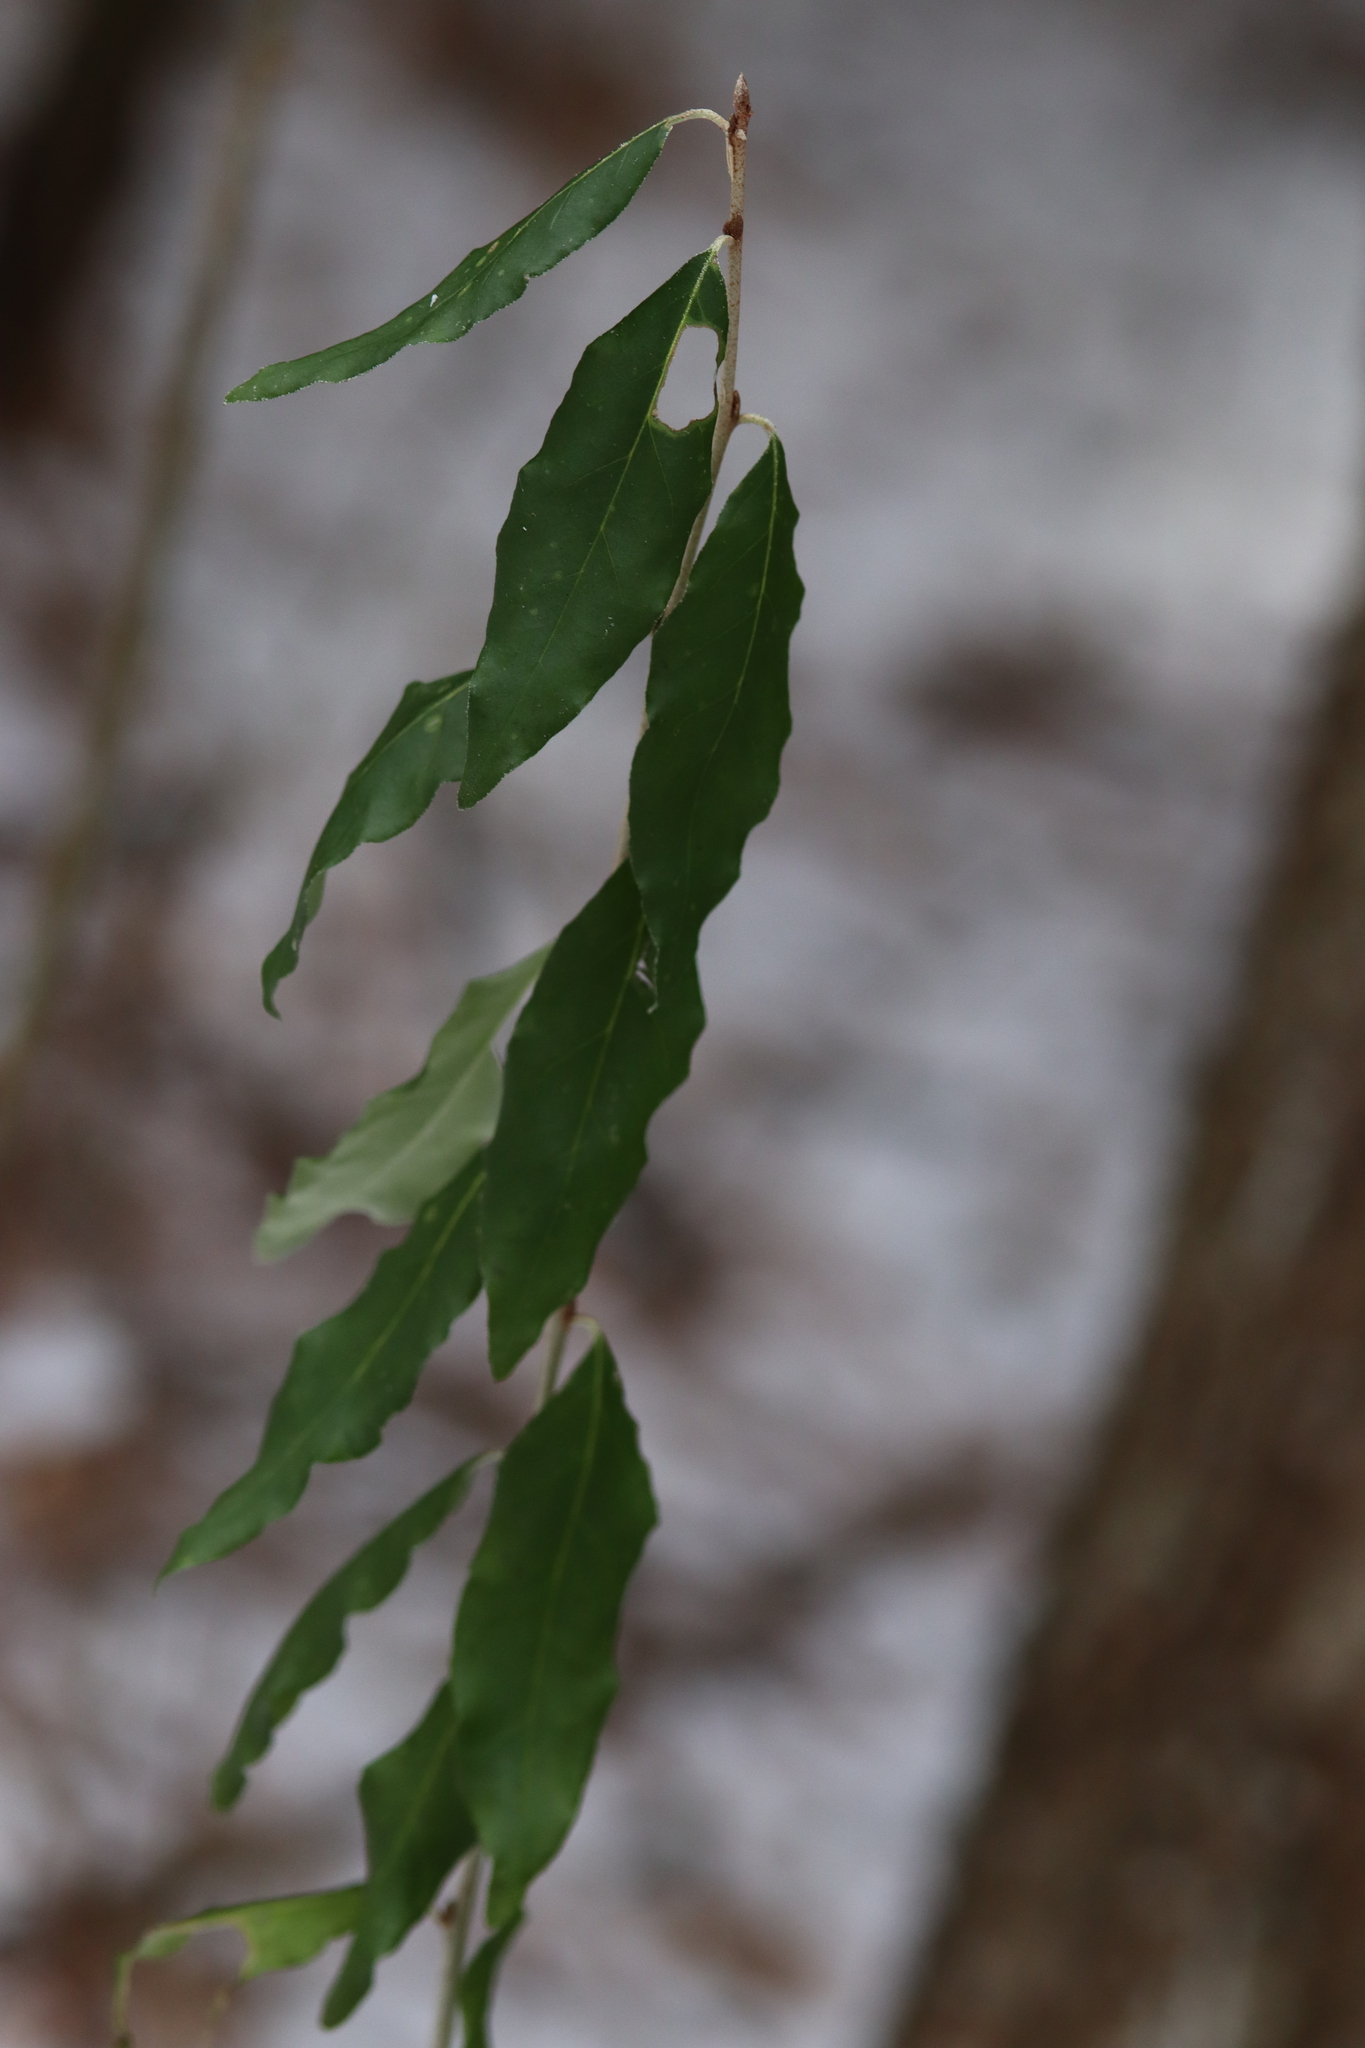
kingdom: Plantae
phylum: Tracheophyta
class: Magnoliopsida
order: Rosales
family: Elaeagnaceae
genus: Elaeagnus
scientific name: Elaeagnus umbellata
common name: Autumn olive
